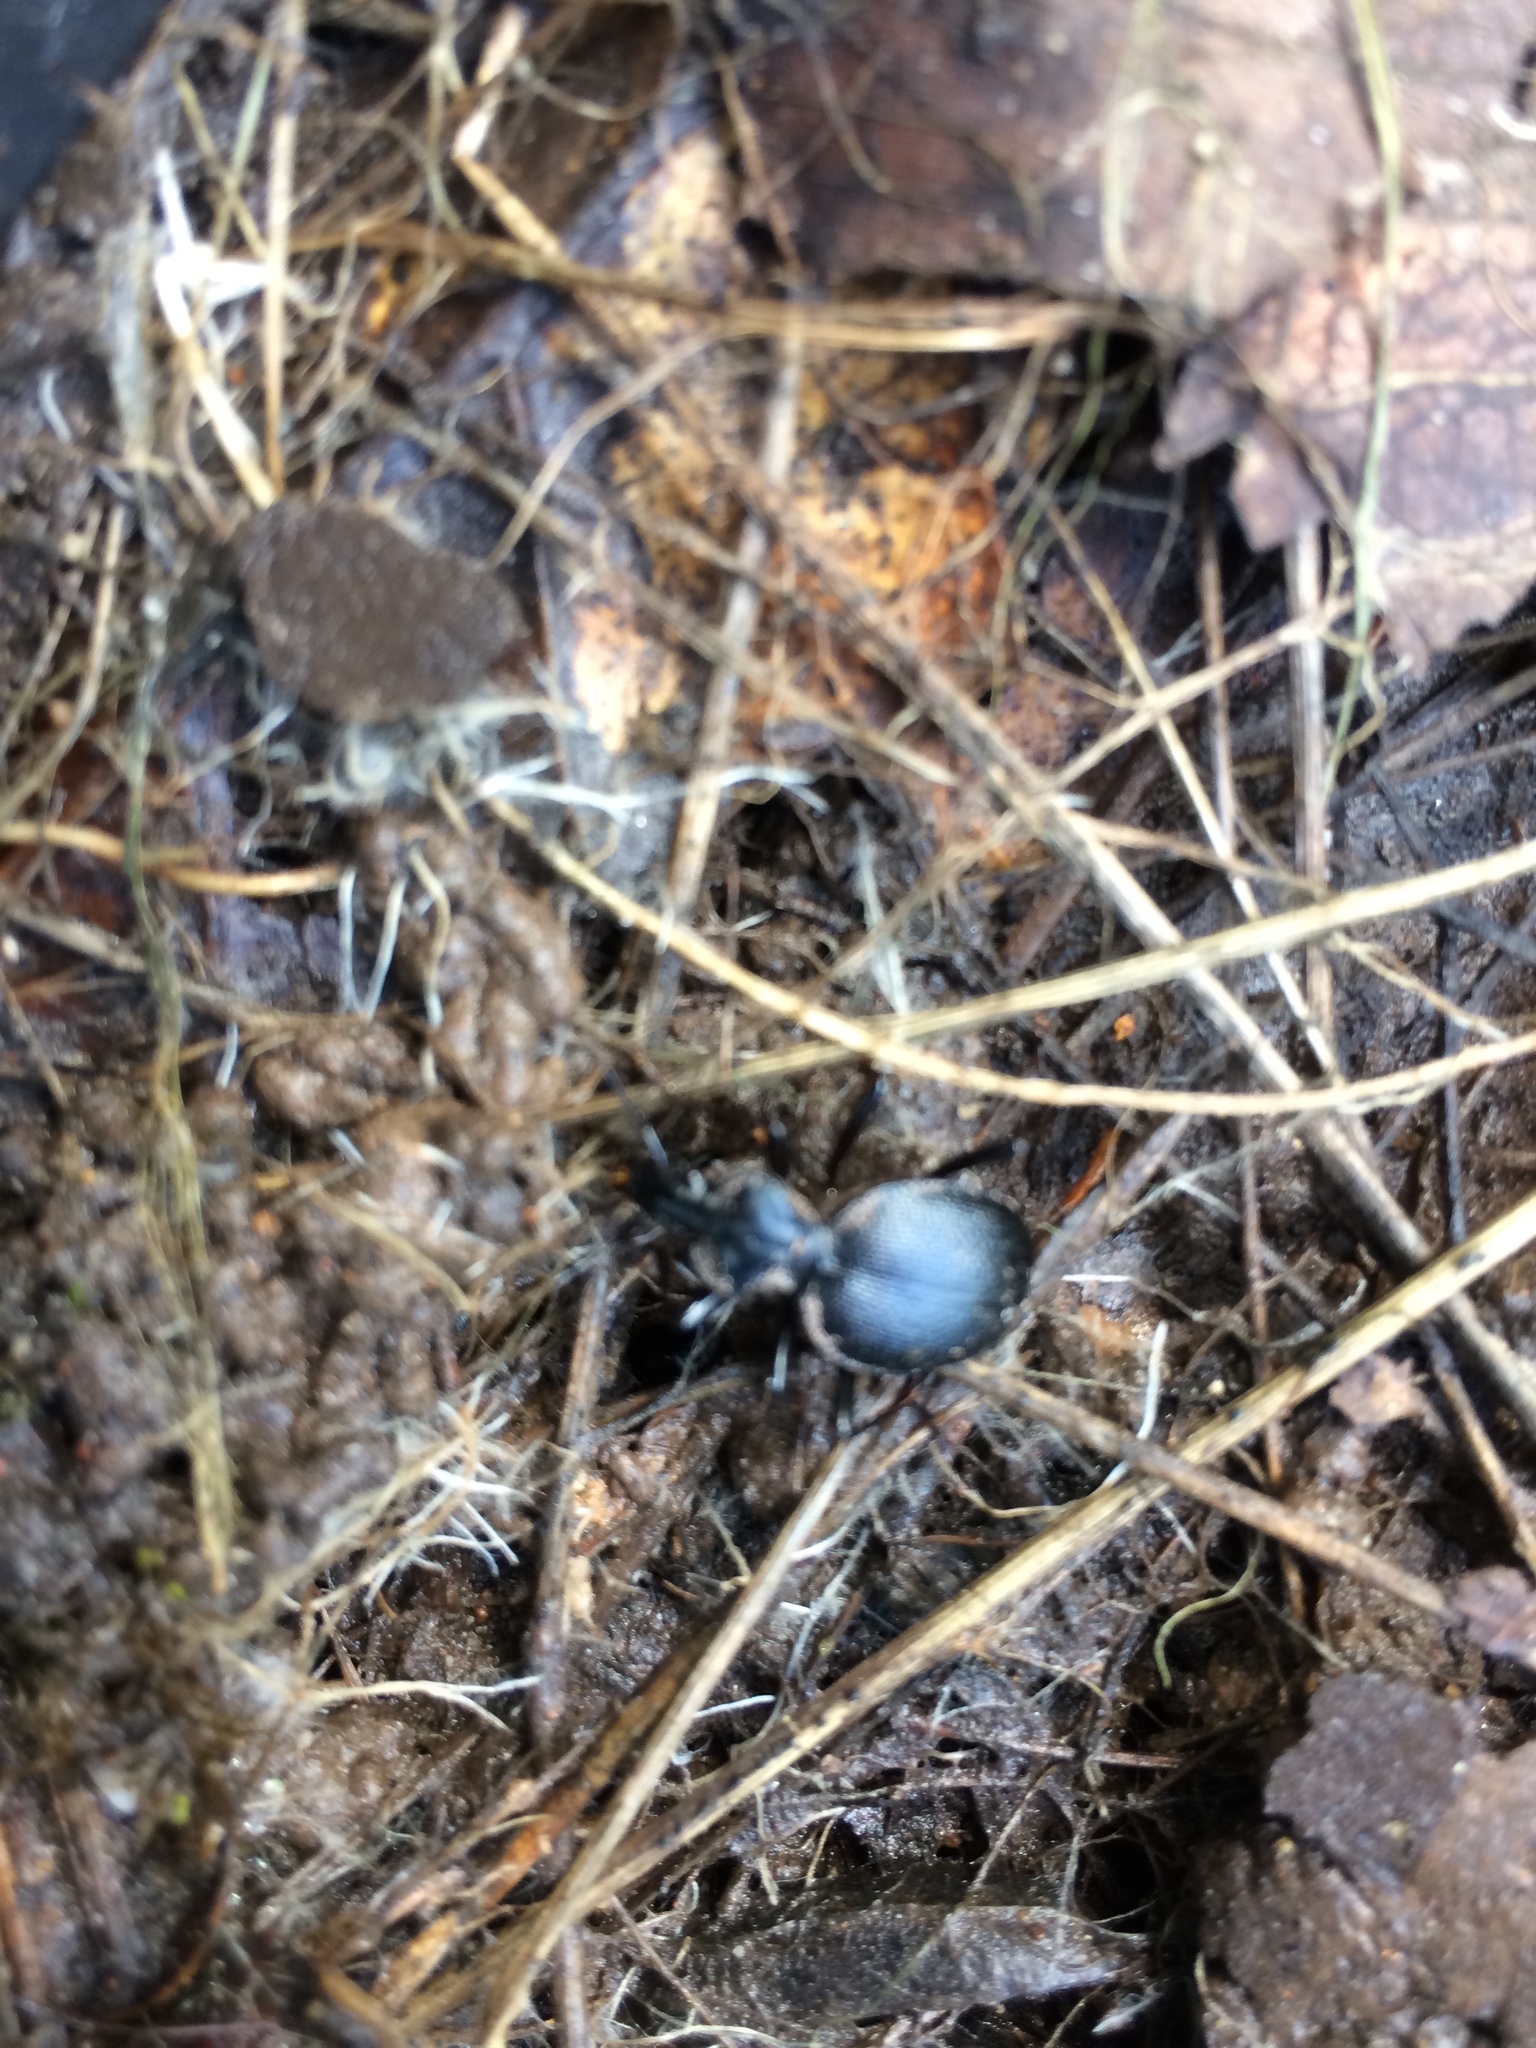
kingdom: Animalia
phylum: Arthropoda
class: Insecta
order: Coleoptera
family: Carabidae
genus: Scaphinotus
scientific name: Scaphinotus interruptus
